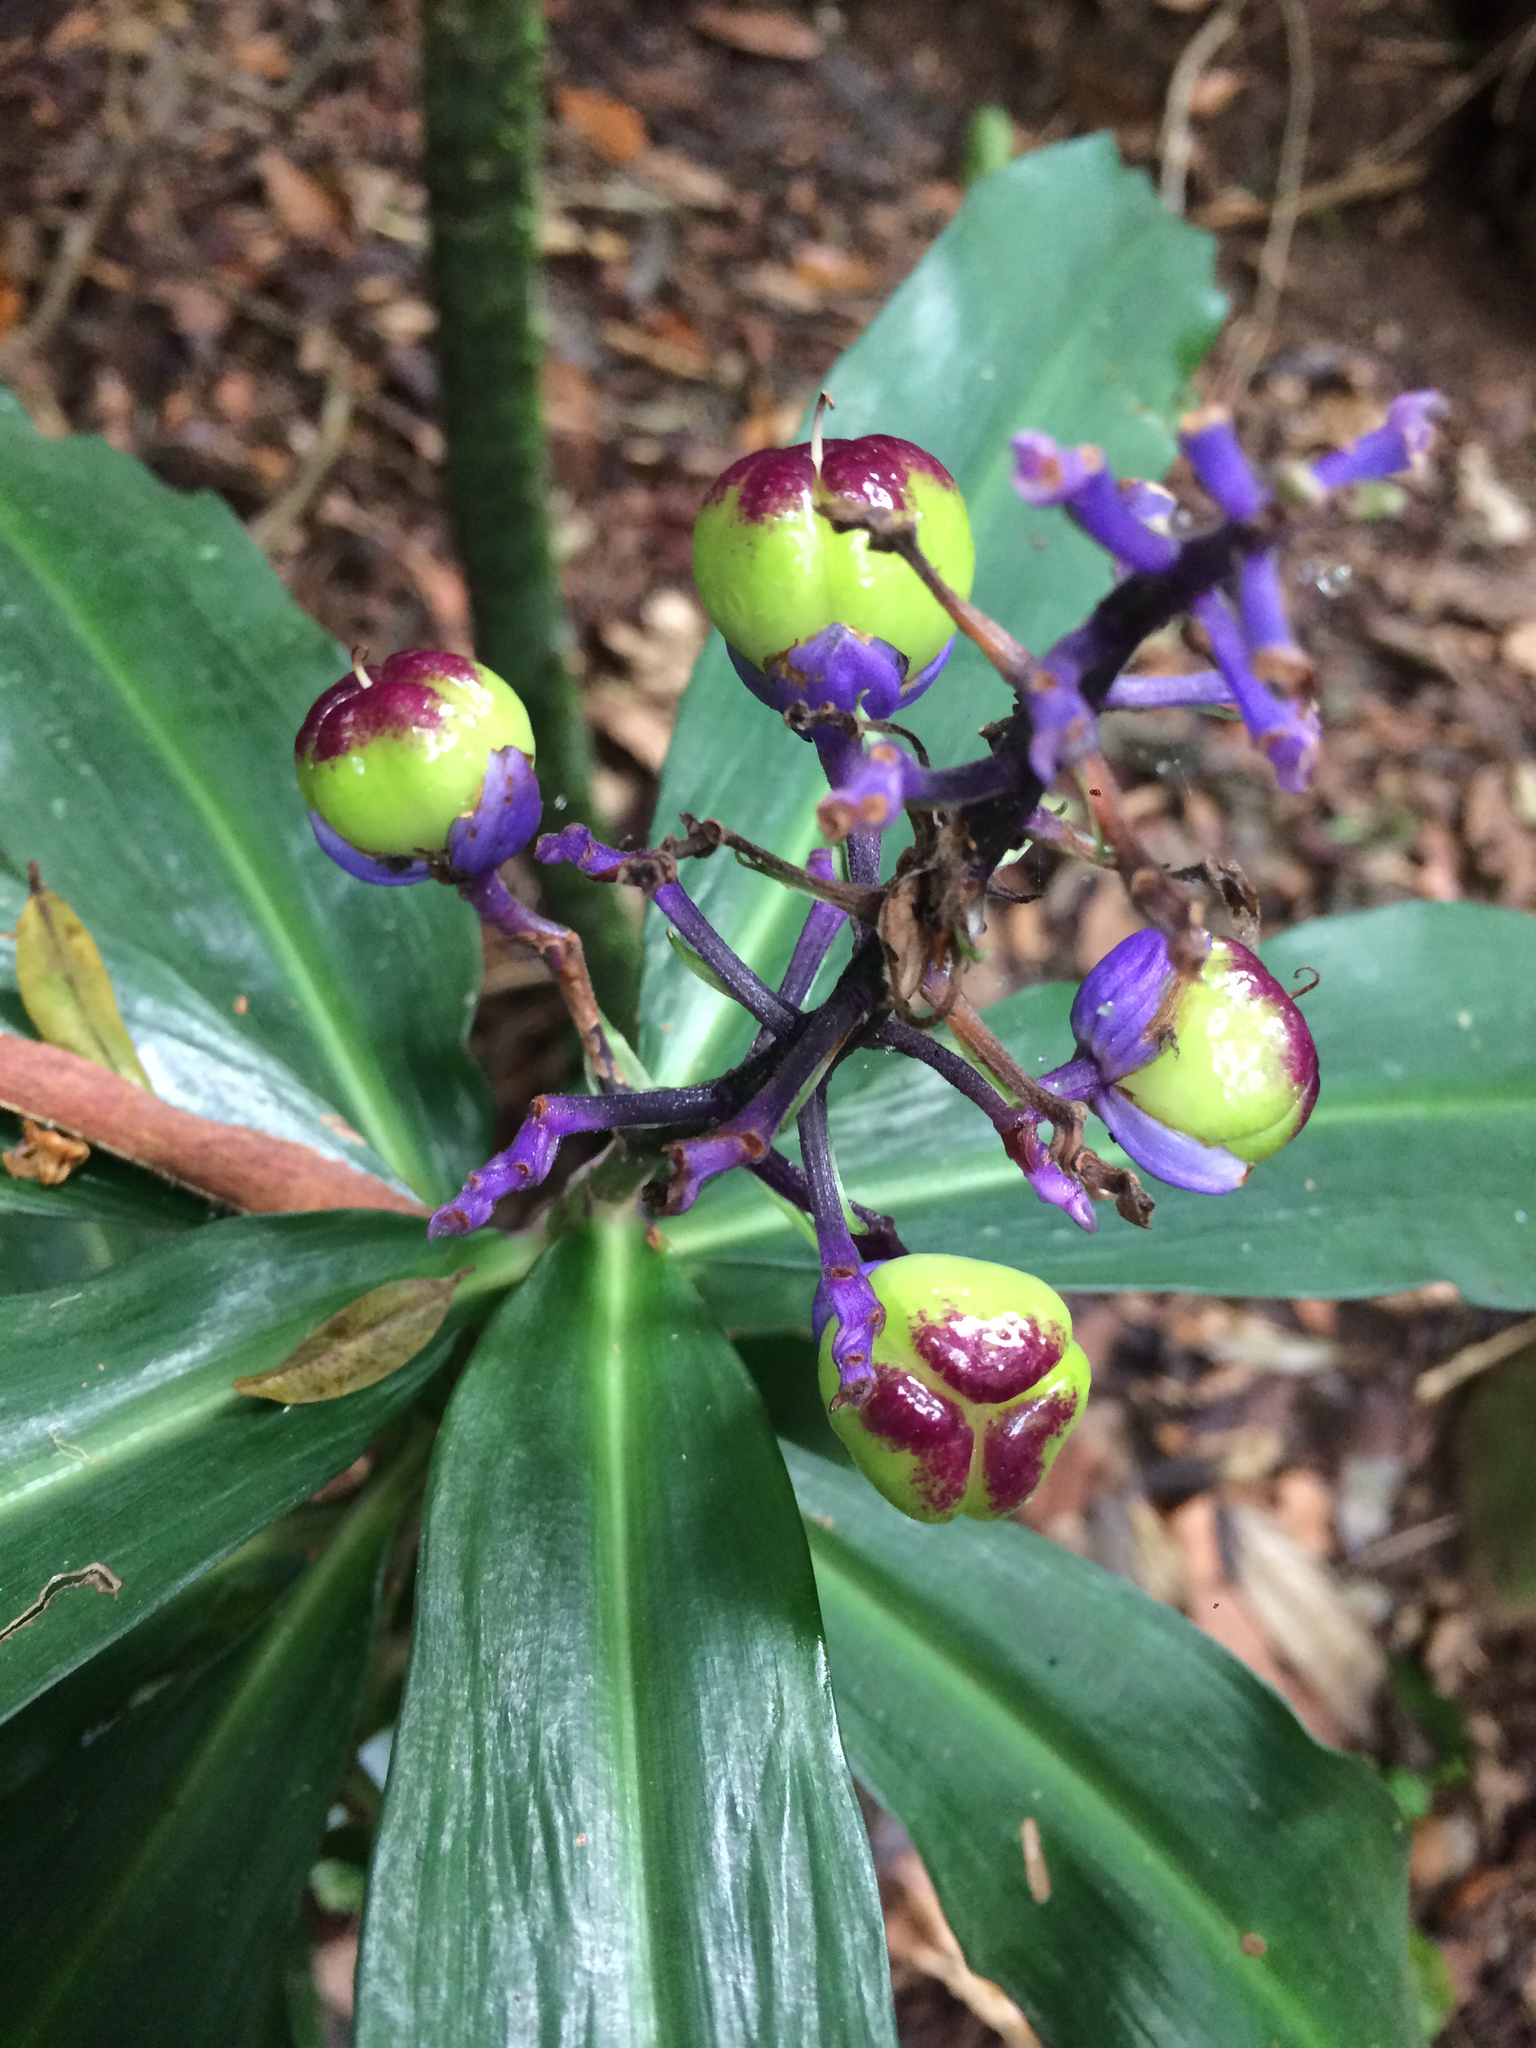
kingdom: Plantae
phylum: Tracheophyta
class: Liliopsida
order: Commelinales
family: Commelinaceae
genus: Dichorisandra
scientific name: Dichorisandra thyrsiflora
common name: Blue-ginger
